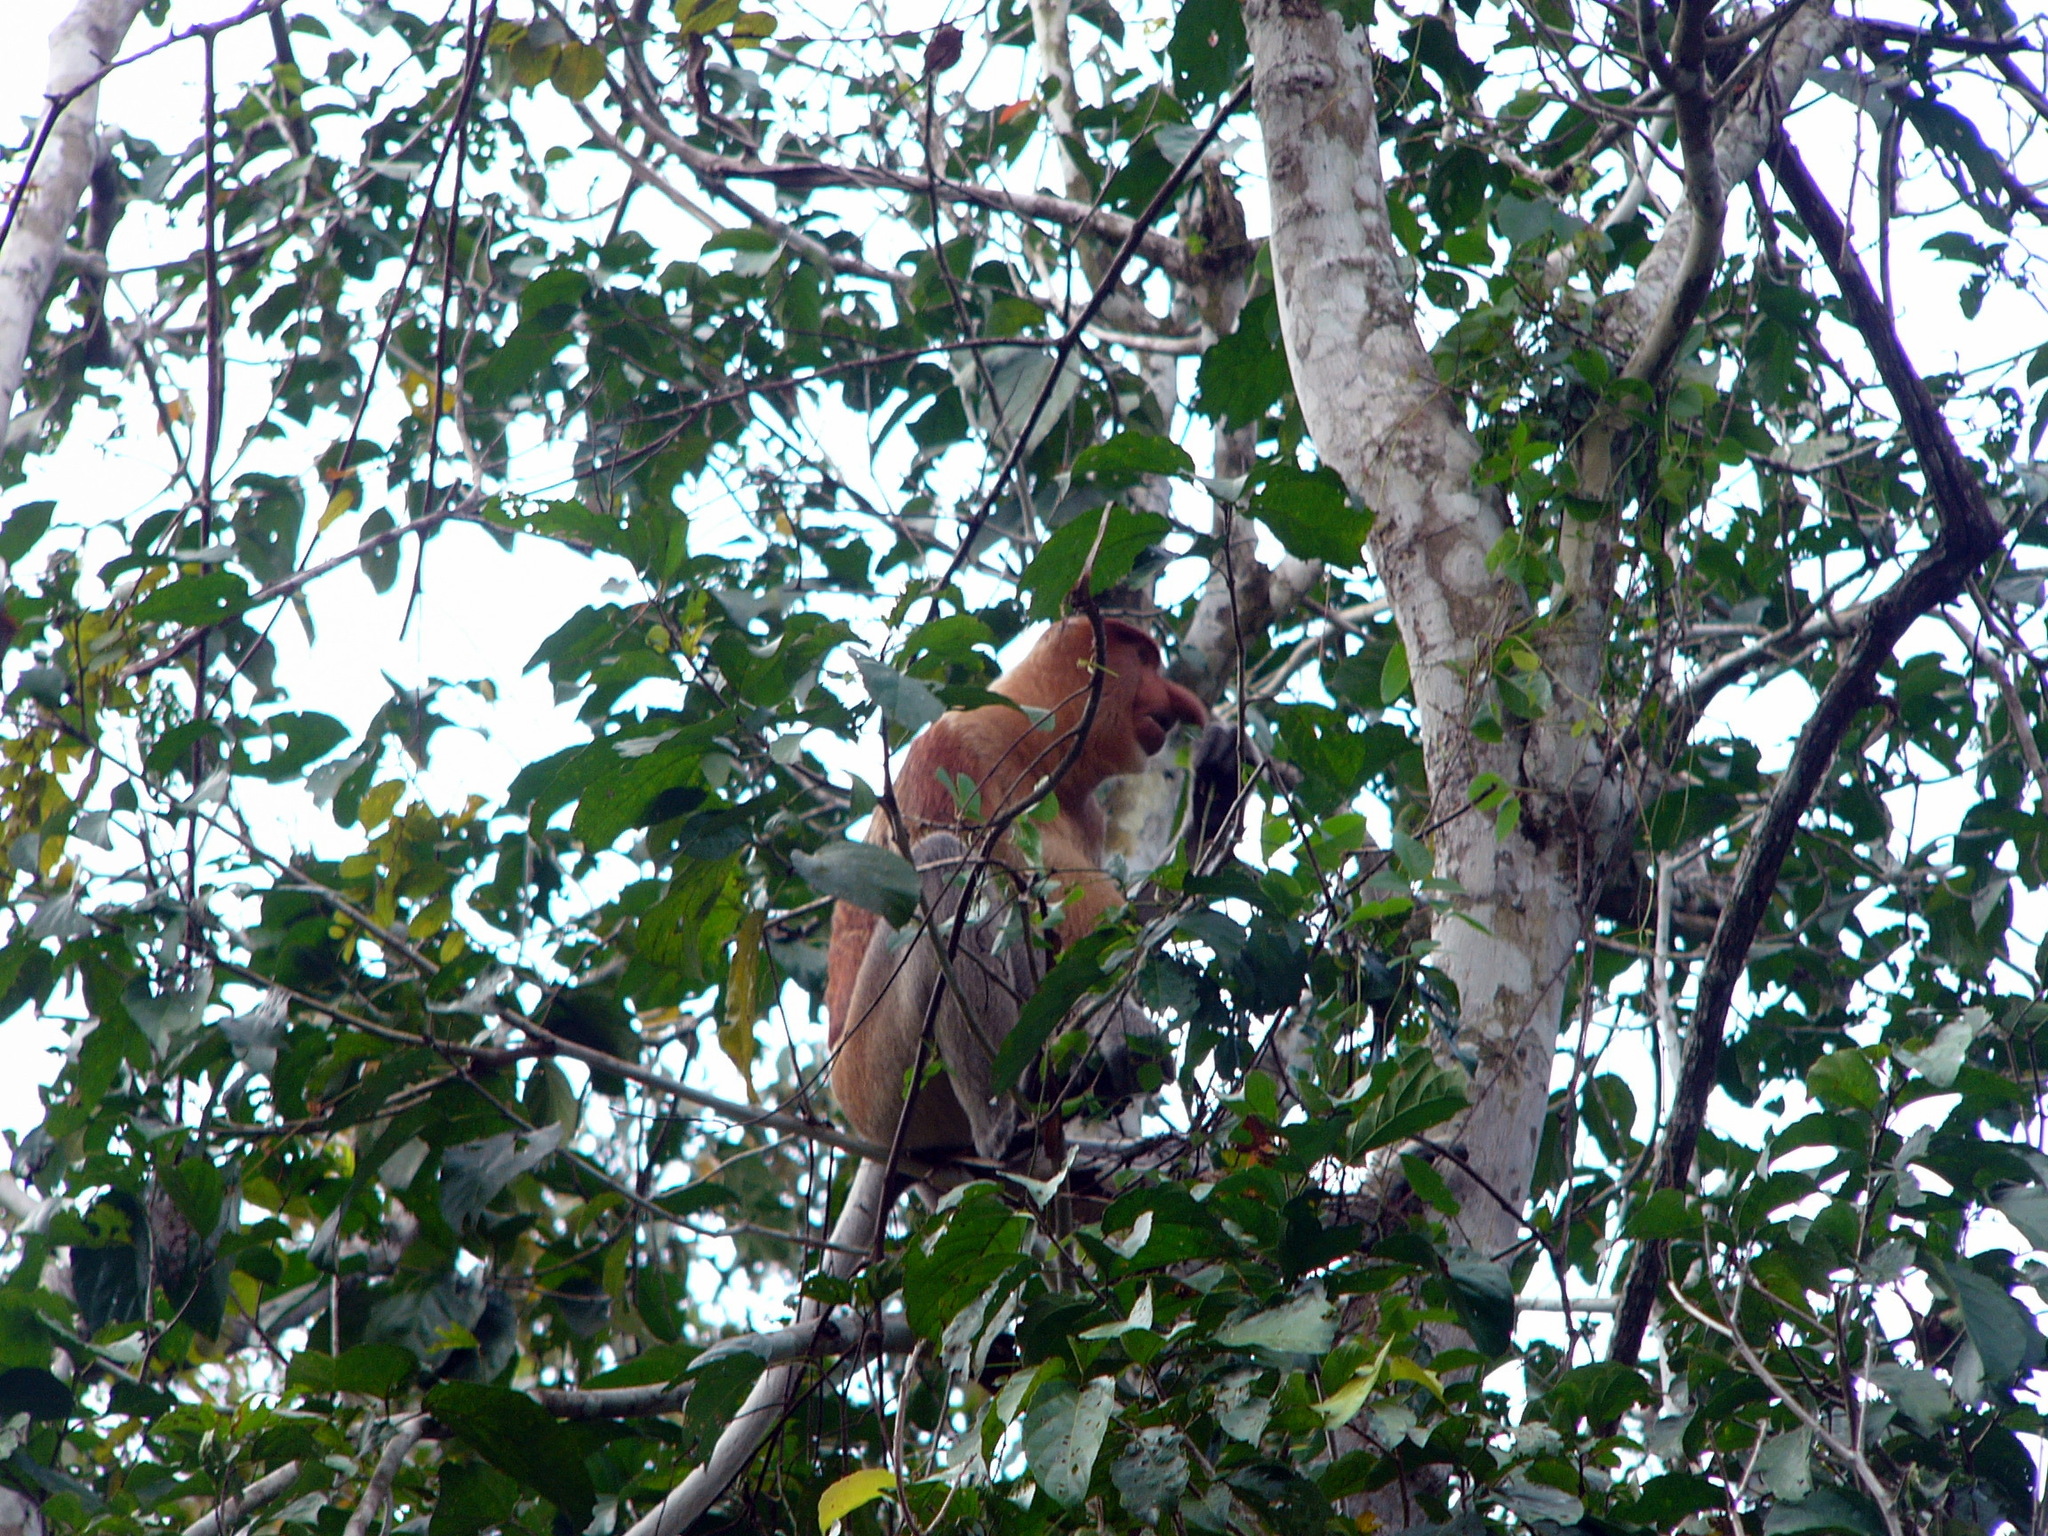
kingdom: Animalia
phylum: Chordata
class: Mammalia
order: Primates
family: Cercopithecidae
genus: Nasalis
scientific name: Nasalis larvatus
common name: Proboscis monkey
